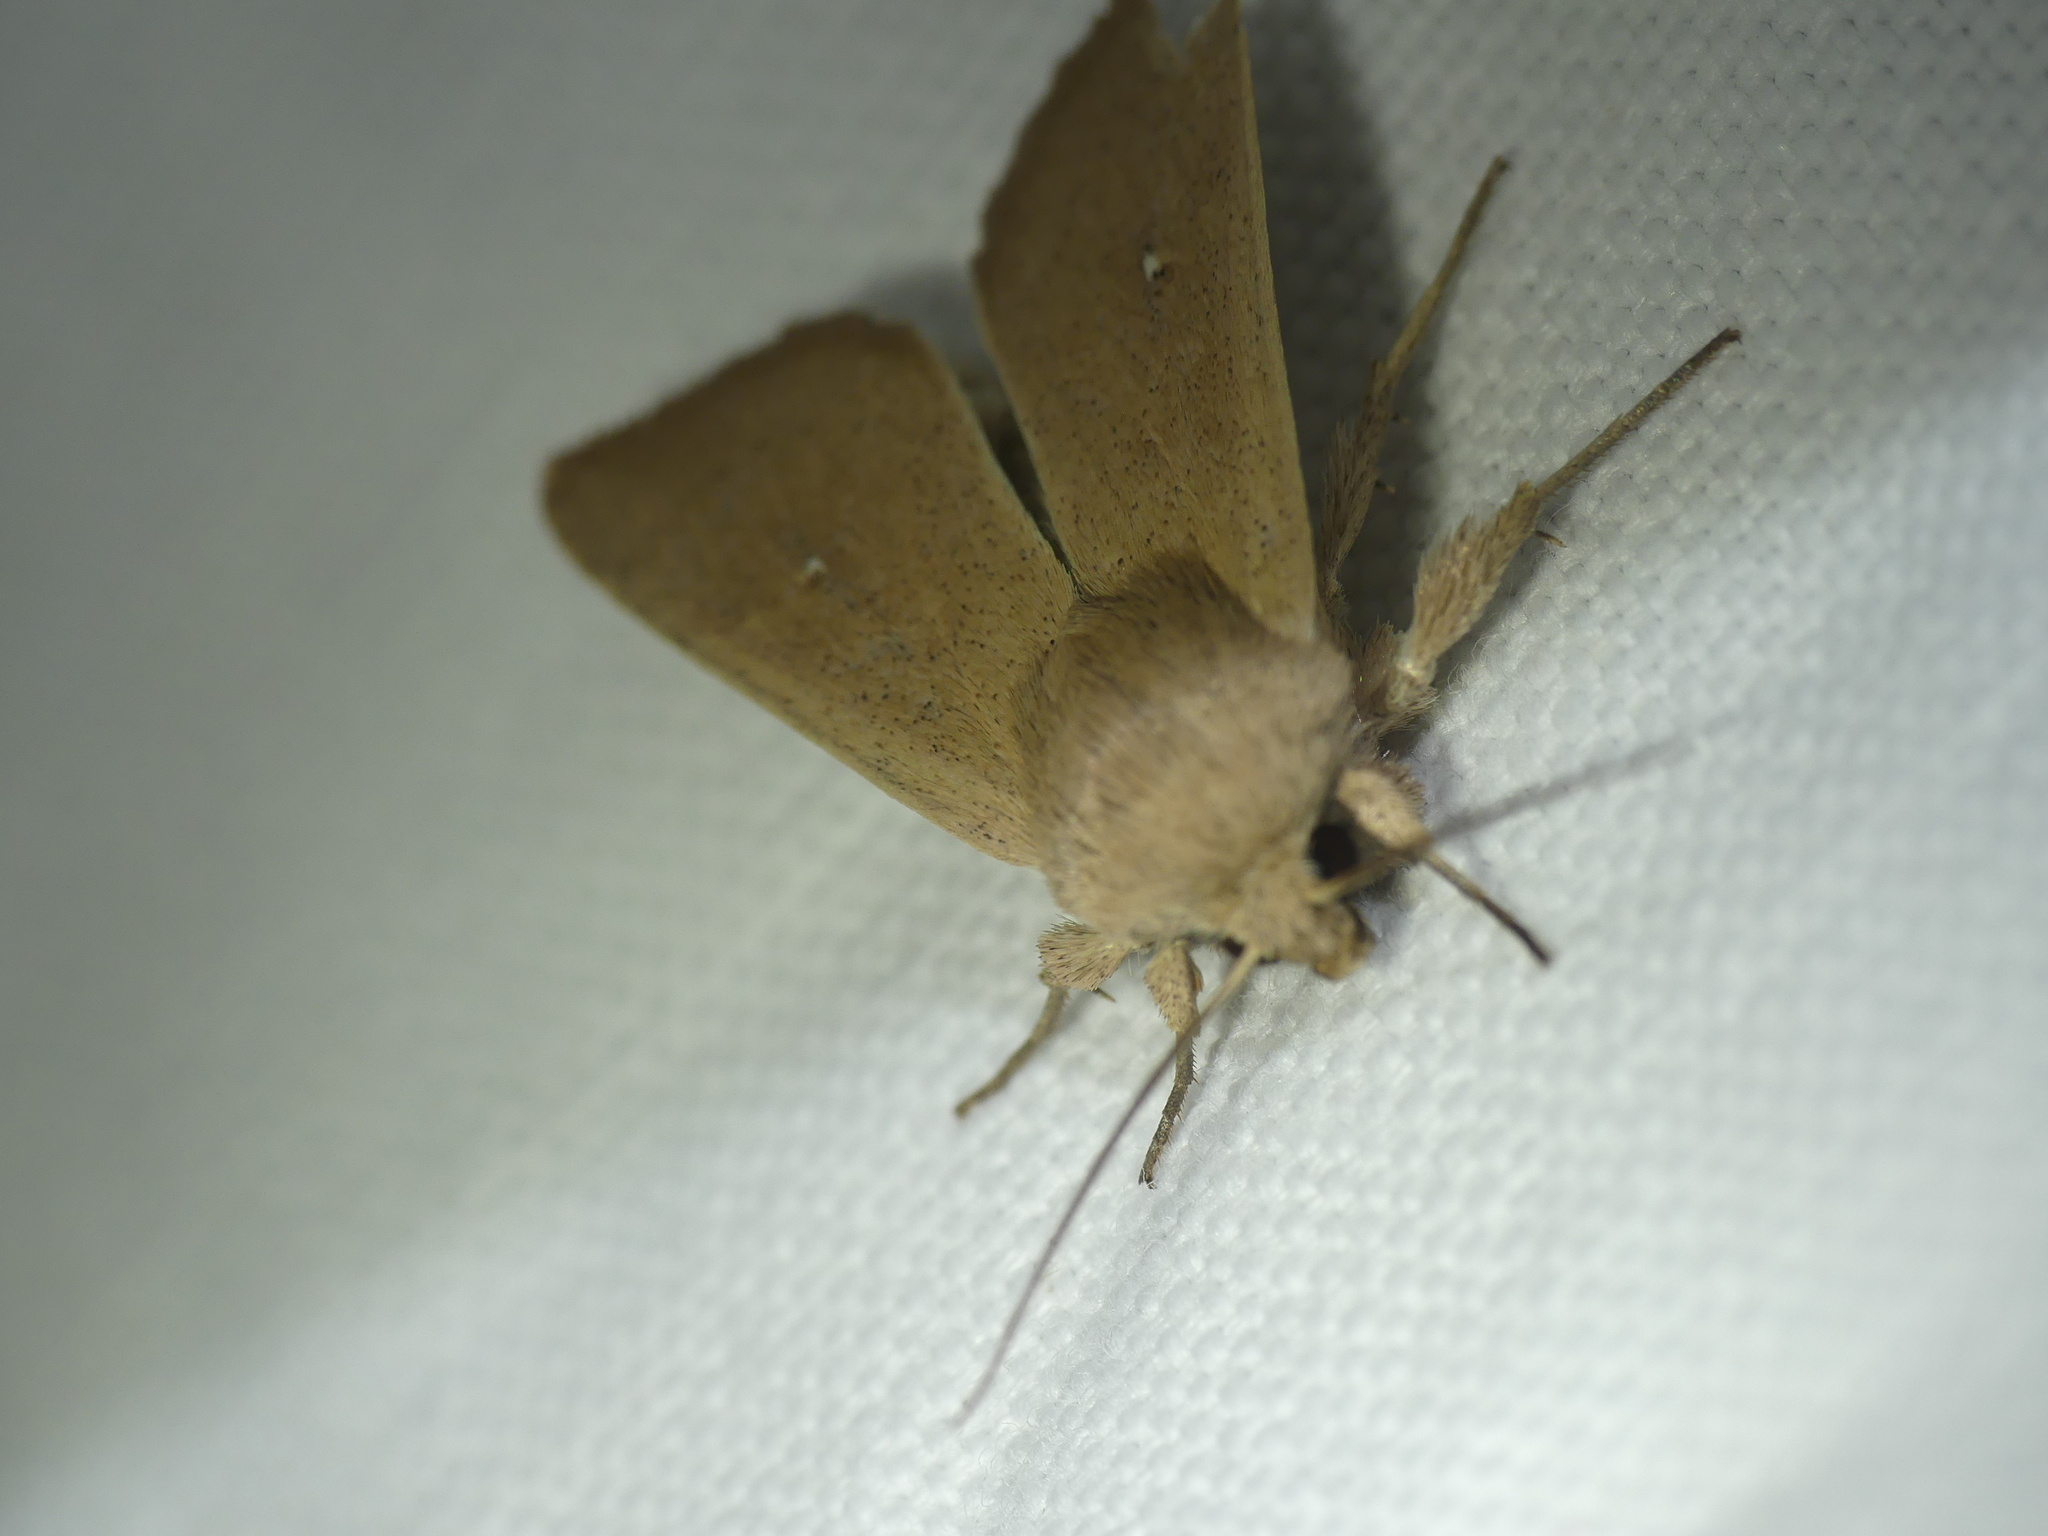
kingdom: Animalia
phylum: Arthropoda
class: Insecta
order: Lepidoptera
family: Noctuidae
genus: Mythimna
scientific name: Mythimna sicula
